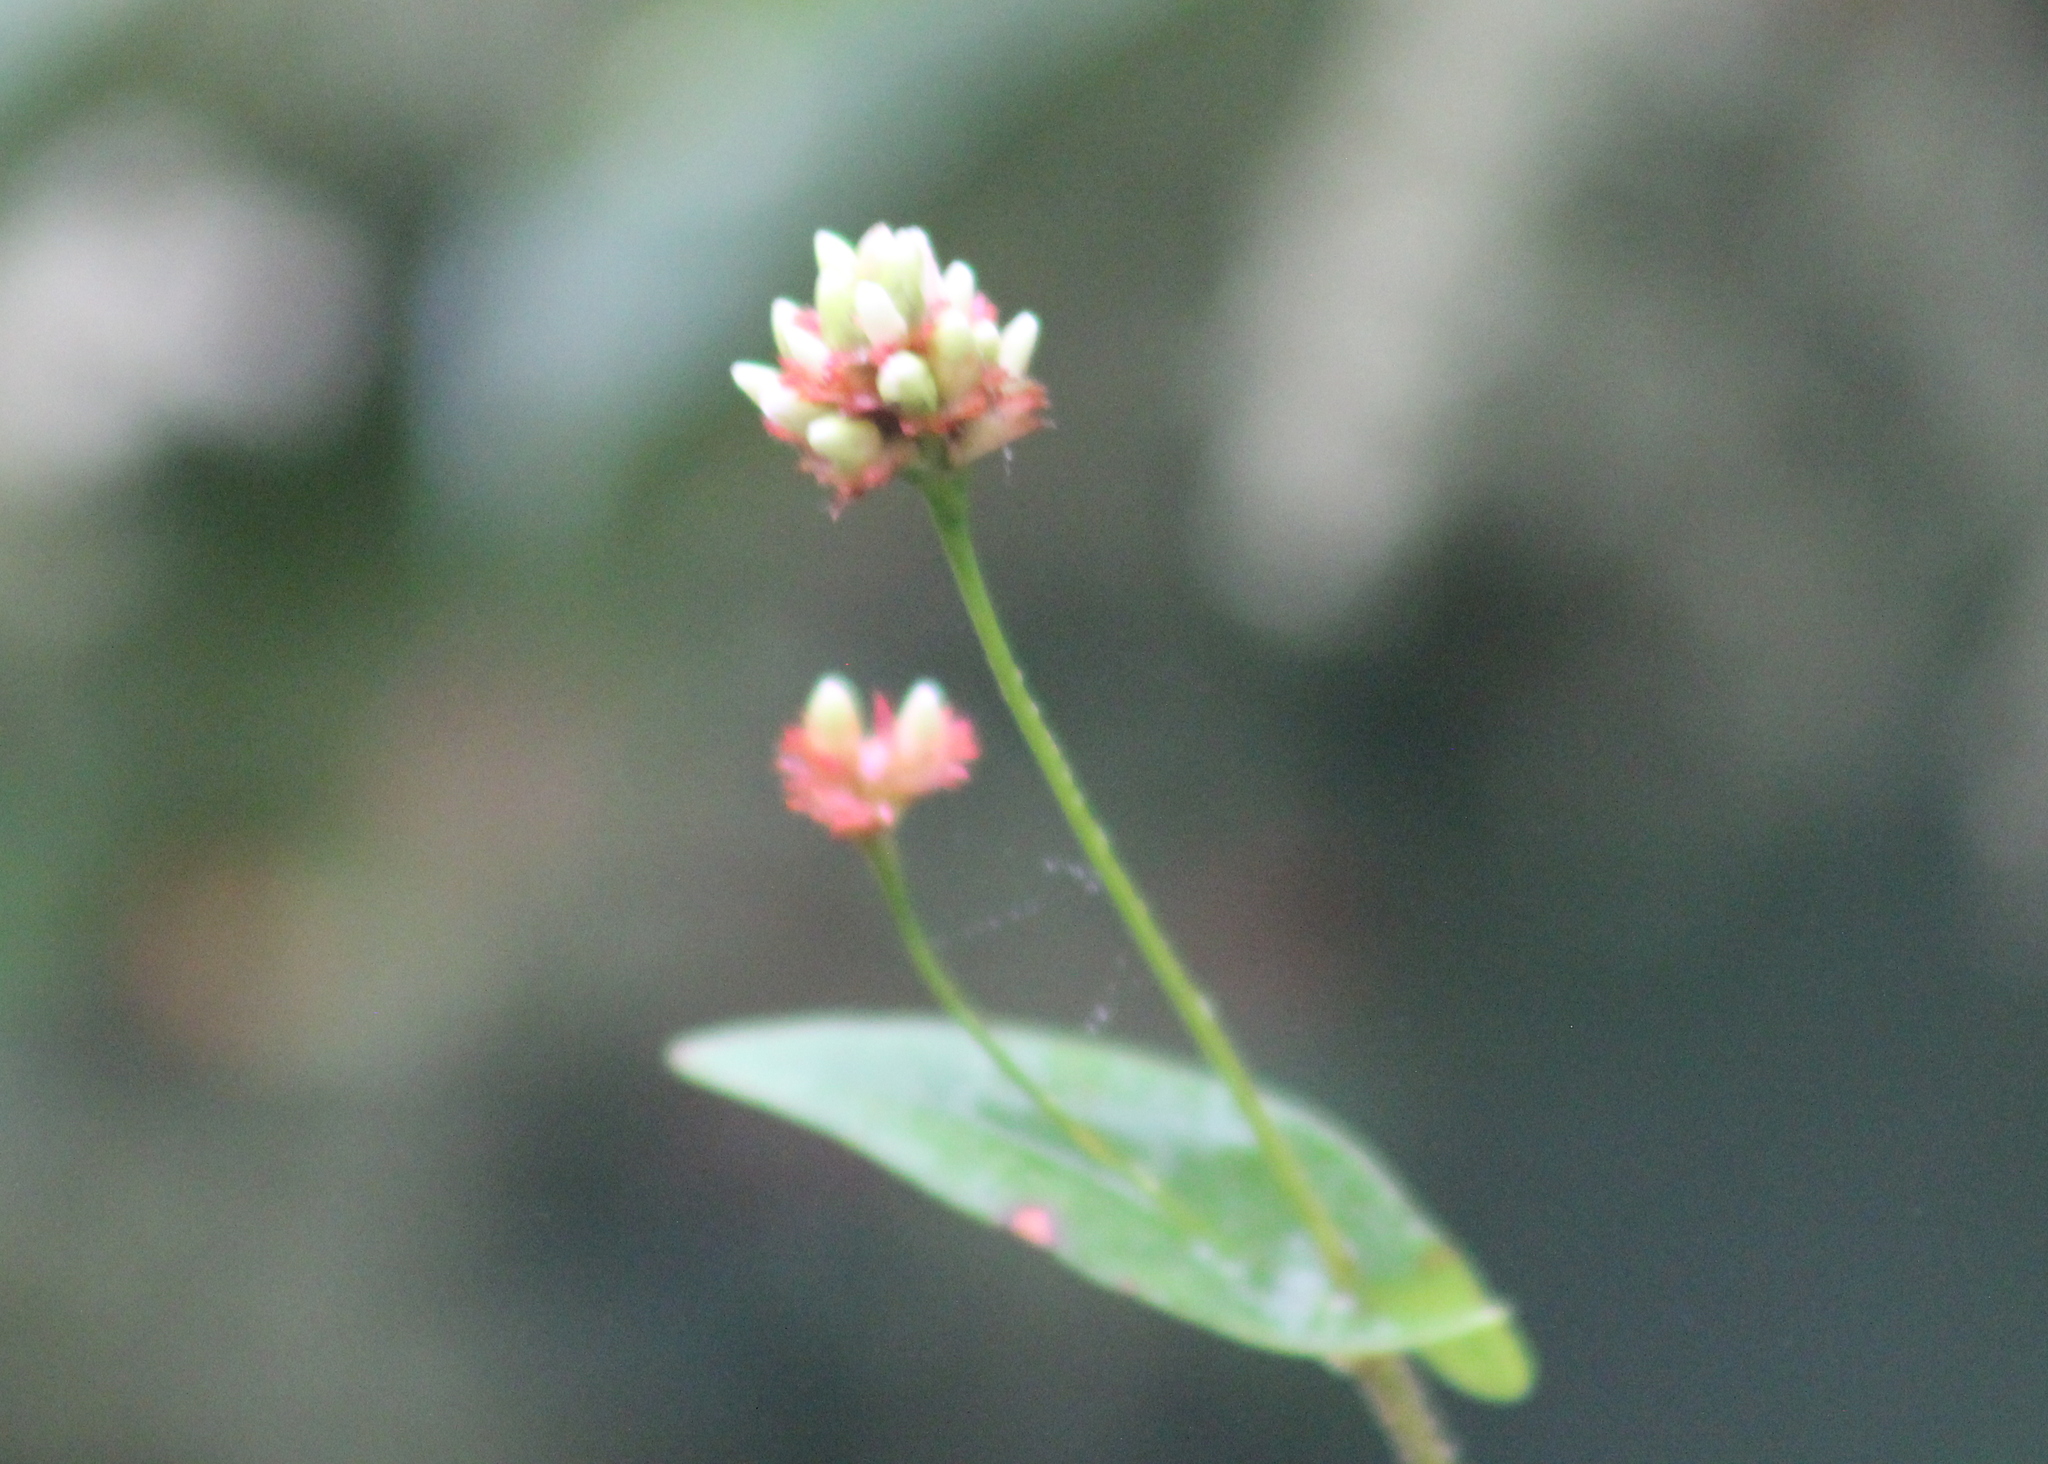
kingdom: Plantae
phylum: Tracheophyta
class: Magnoliopsida
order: Caryophyllales
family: Polygonaceae
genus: Persicaria
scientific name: Persicaria sagittata
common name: American tearthumb
